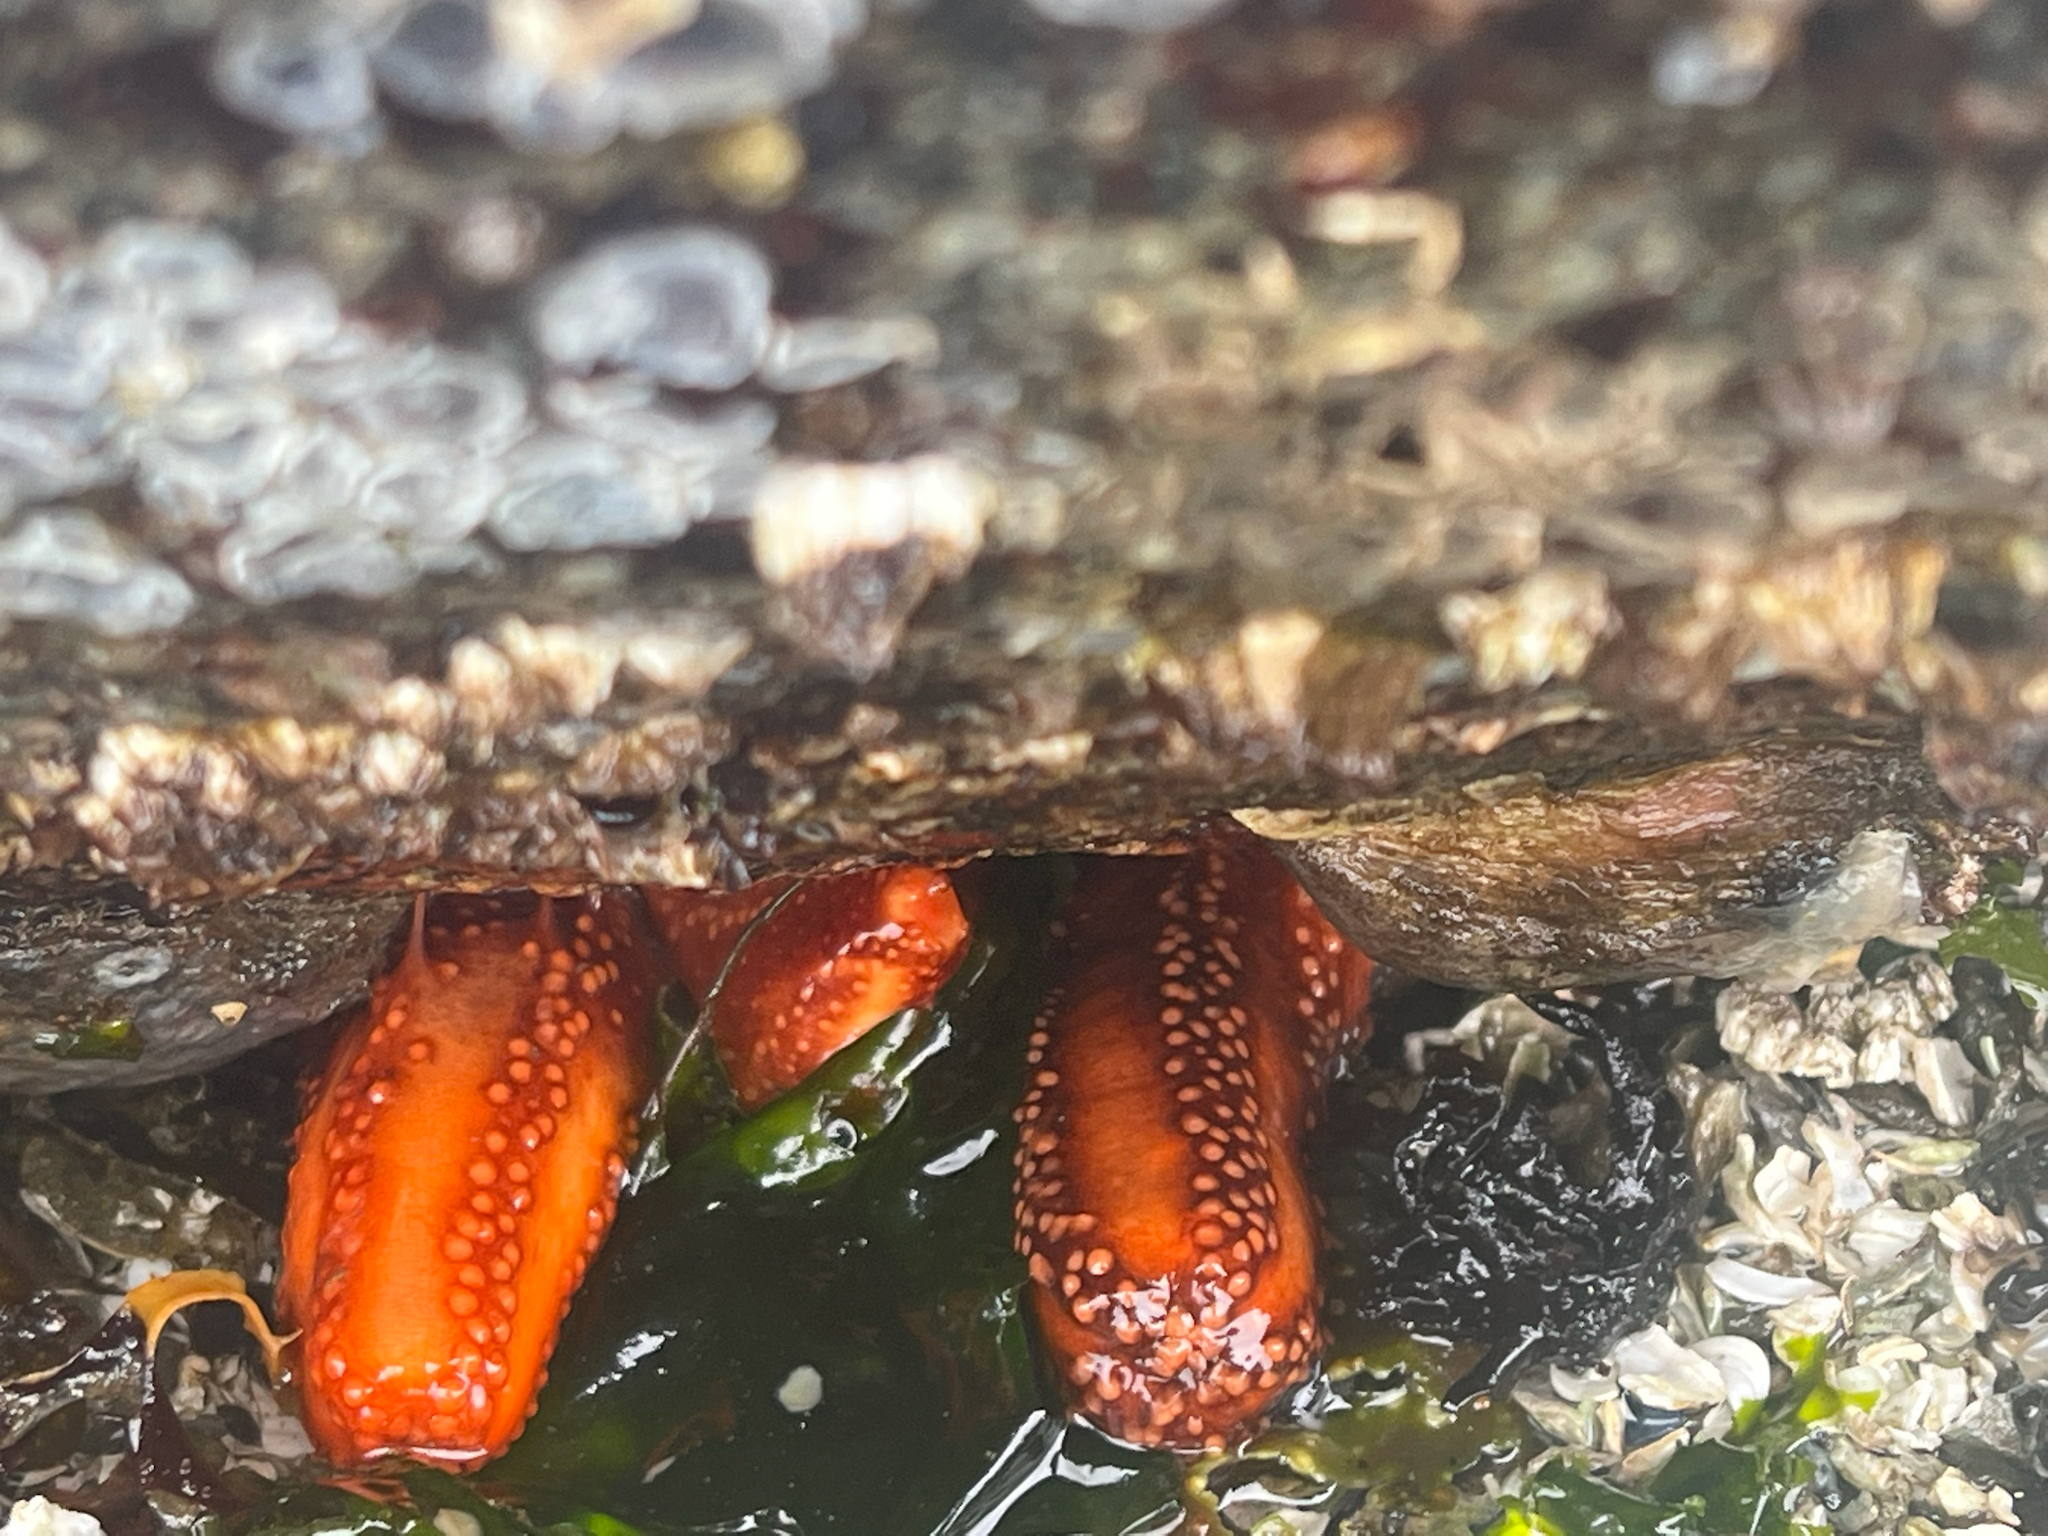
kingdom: Animalia
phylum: Echinodermata
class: Holothuroidea
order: Dendrochirotida
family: Cucumariidae
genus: Cucumaria
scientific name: Cucumaria miniata
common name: Orange sea cucumber
